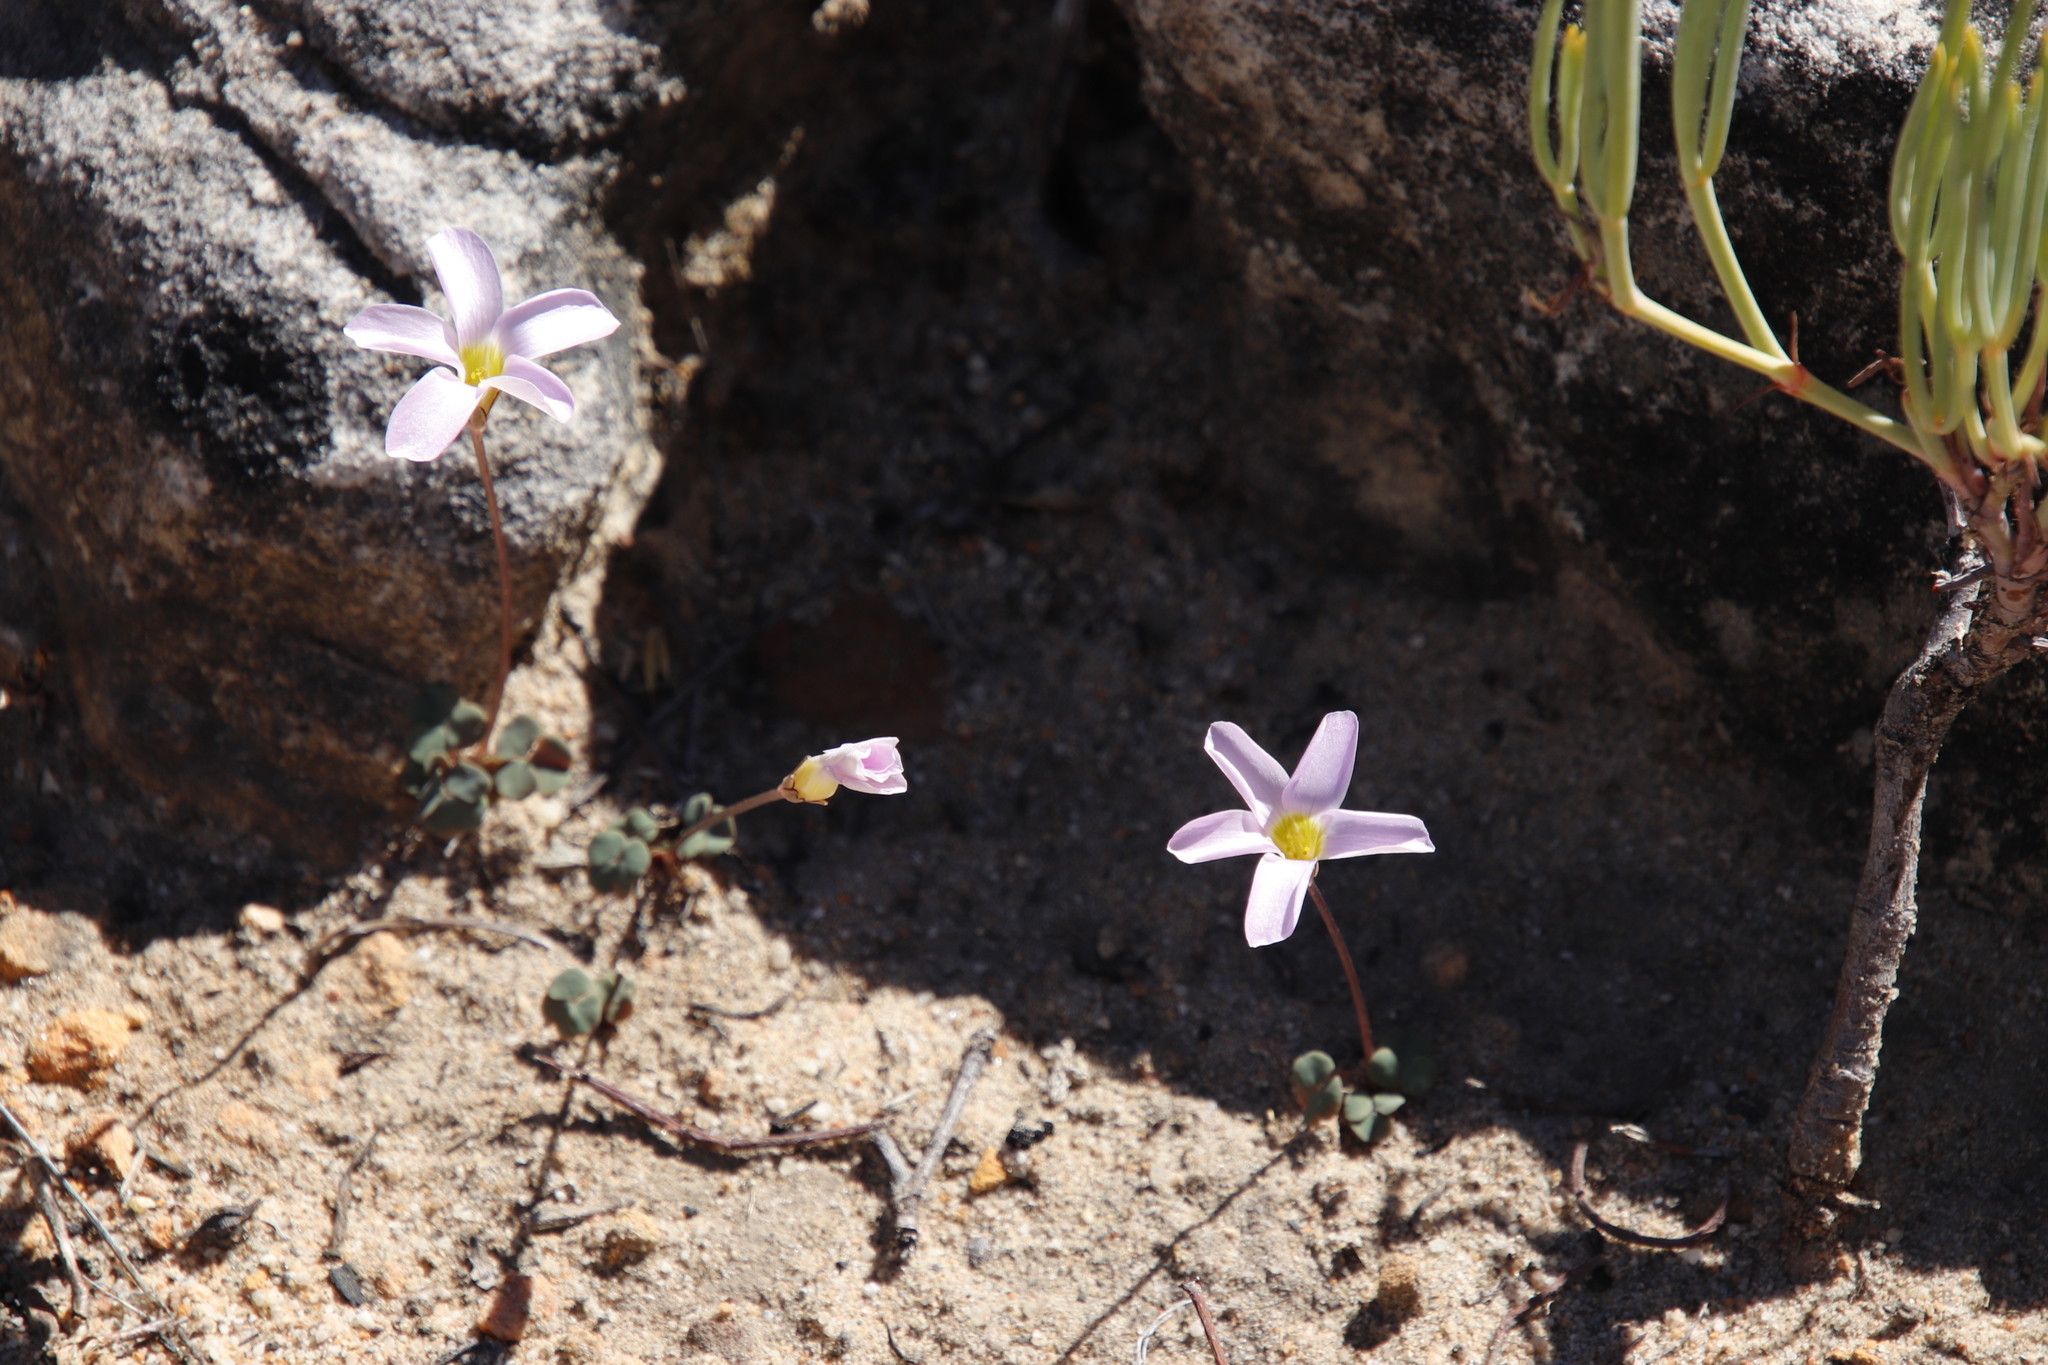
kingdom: Plantae
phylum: Tracheophyta
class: Magnoliopsida
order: Oxalidales
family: Oxalidaceae
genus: Oxalis
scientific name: Oxalis pocockiae
